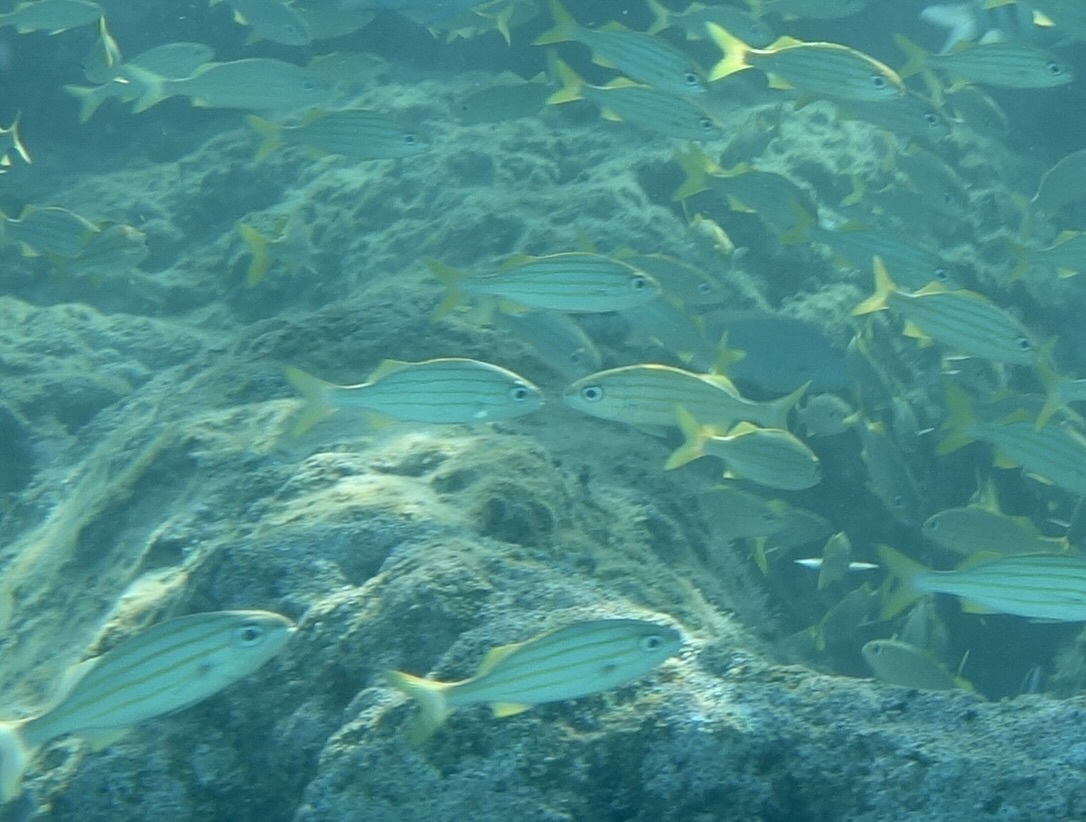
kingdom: Animalia
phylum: Chordata
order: Perciformes
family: Haemulidae
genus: Haemulon
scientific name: Haemulon chrysargyreum
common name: Smallmouth grunt
